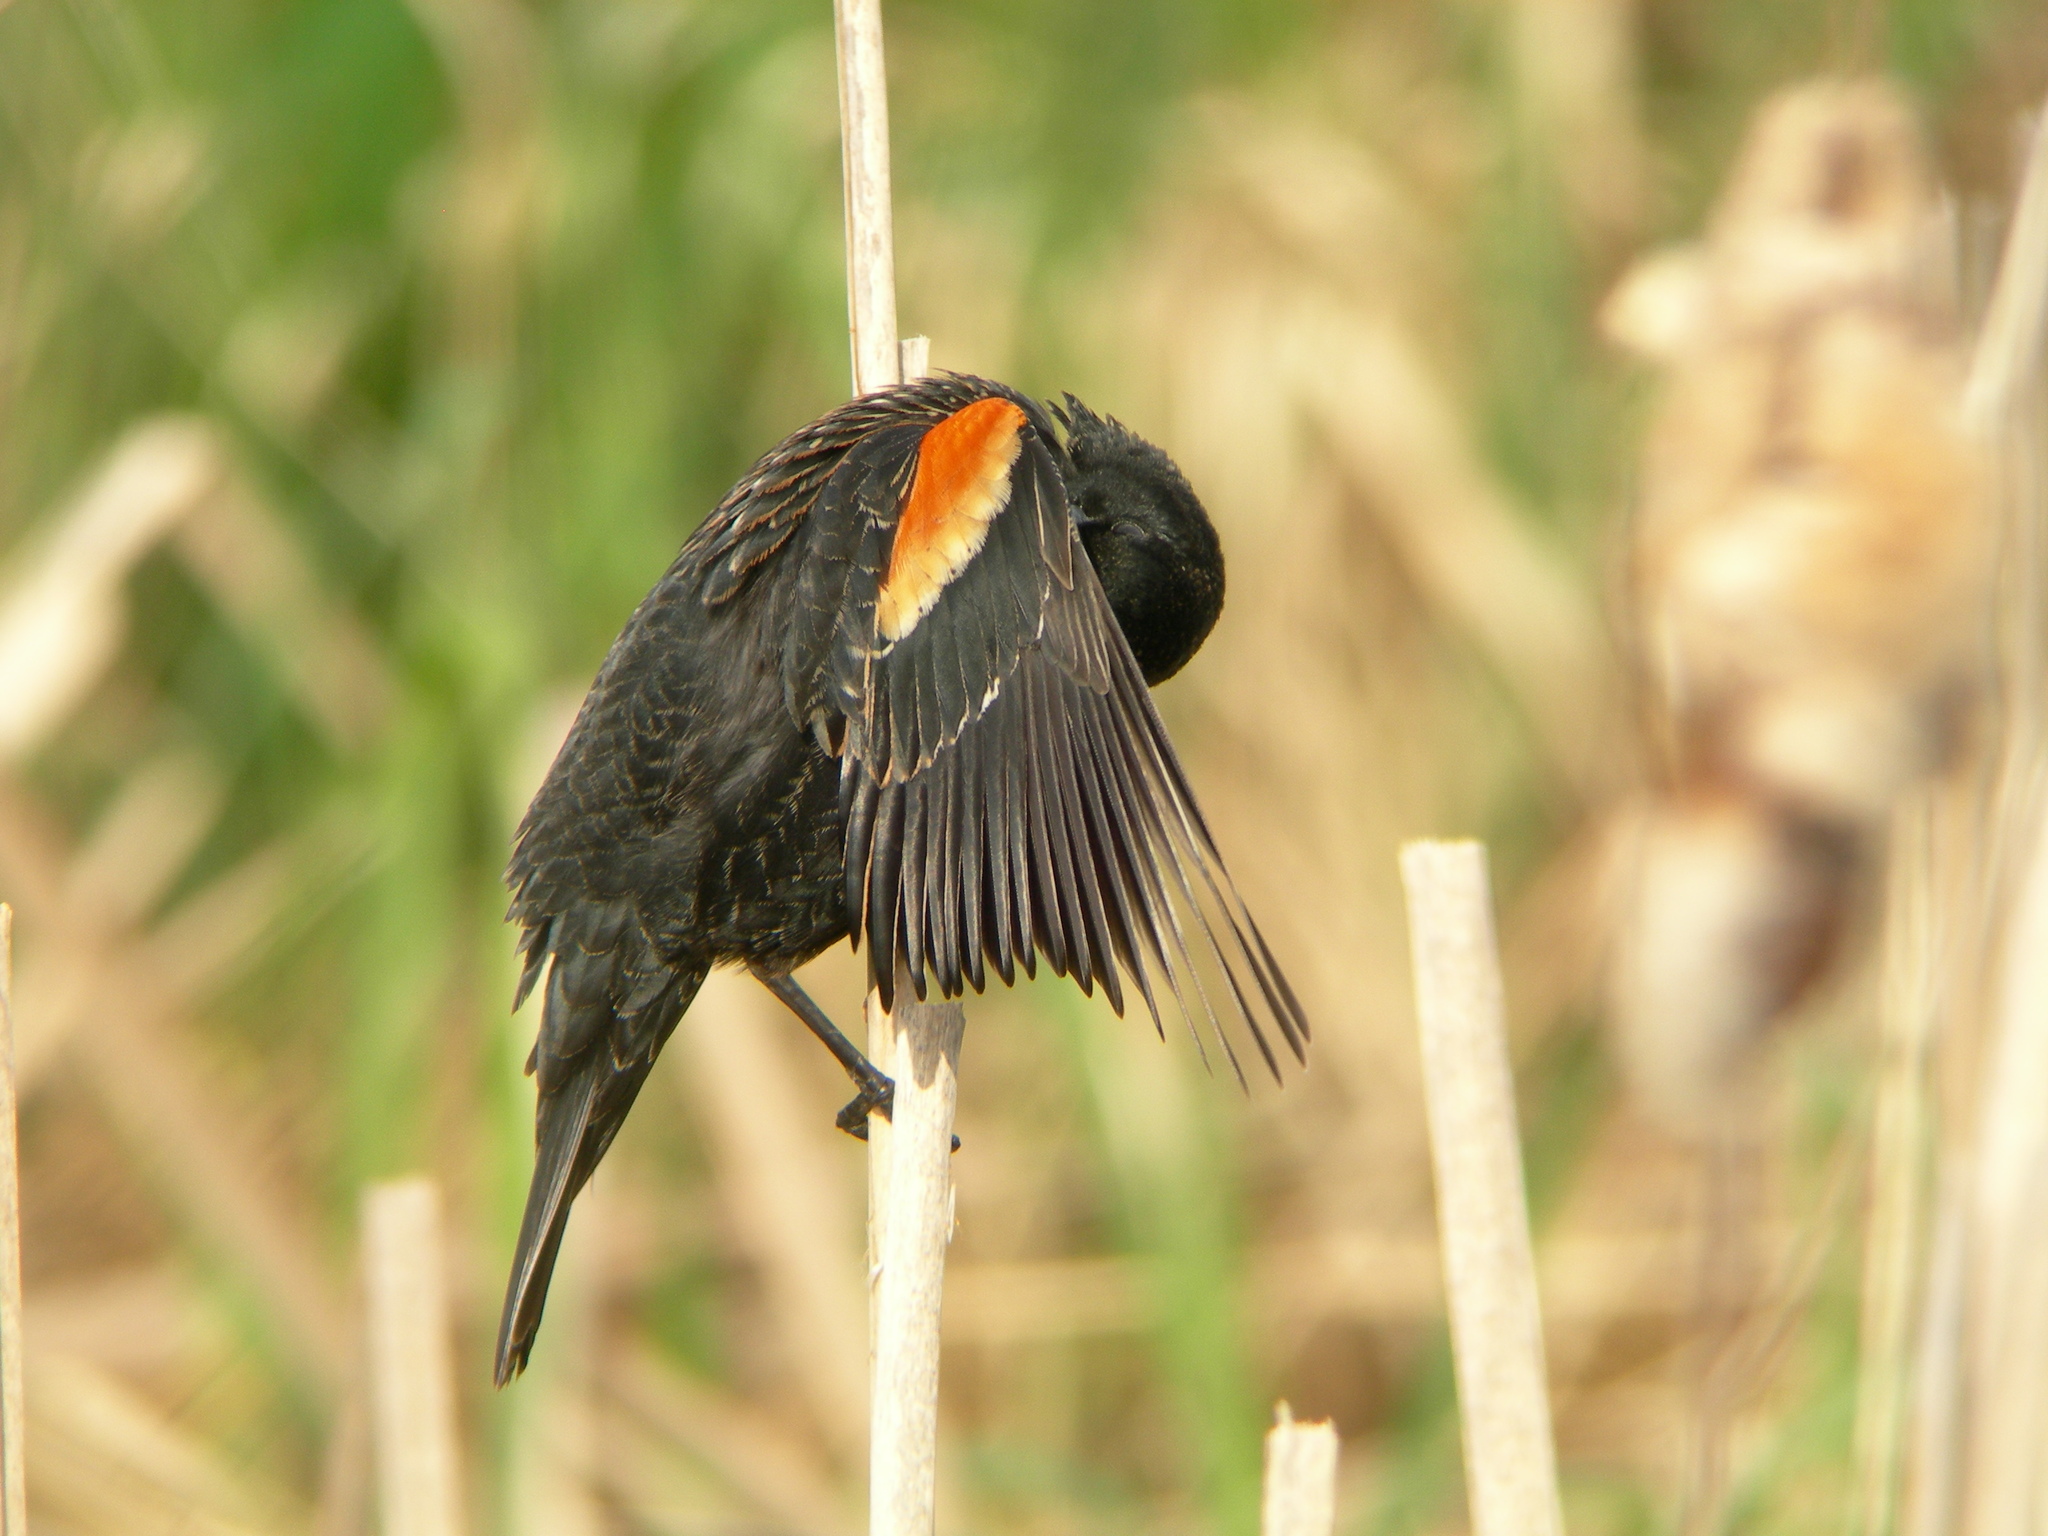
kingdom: Animalia
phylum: Chordata
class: Aves
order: Passeriformes
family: Icteridae
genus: Agelaius
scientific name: Agelaius phoeniceus
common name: Red-winged blackbird
